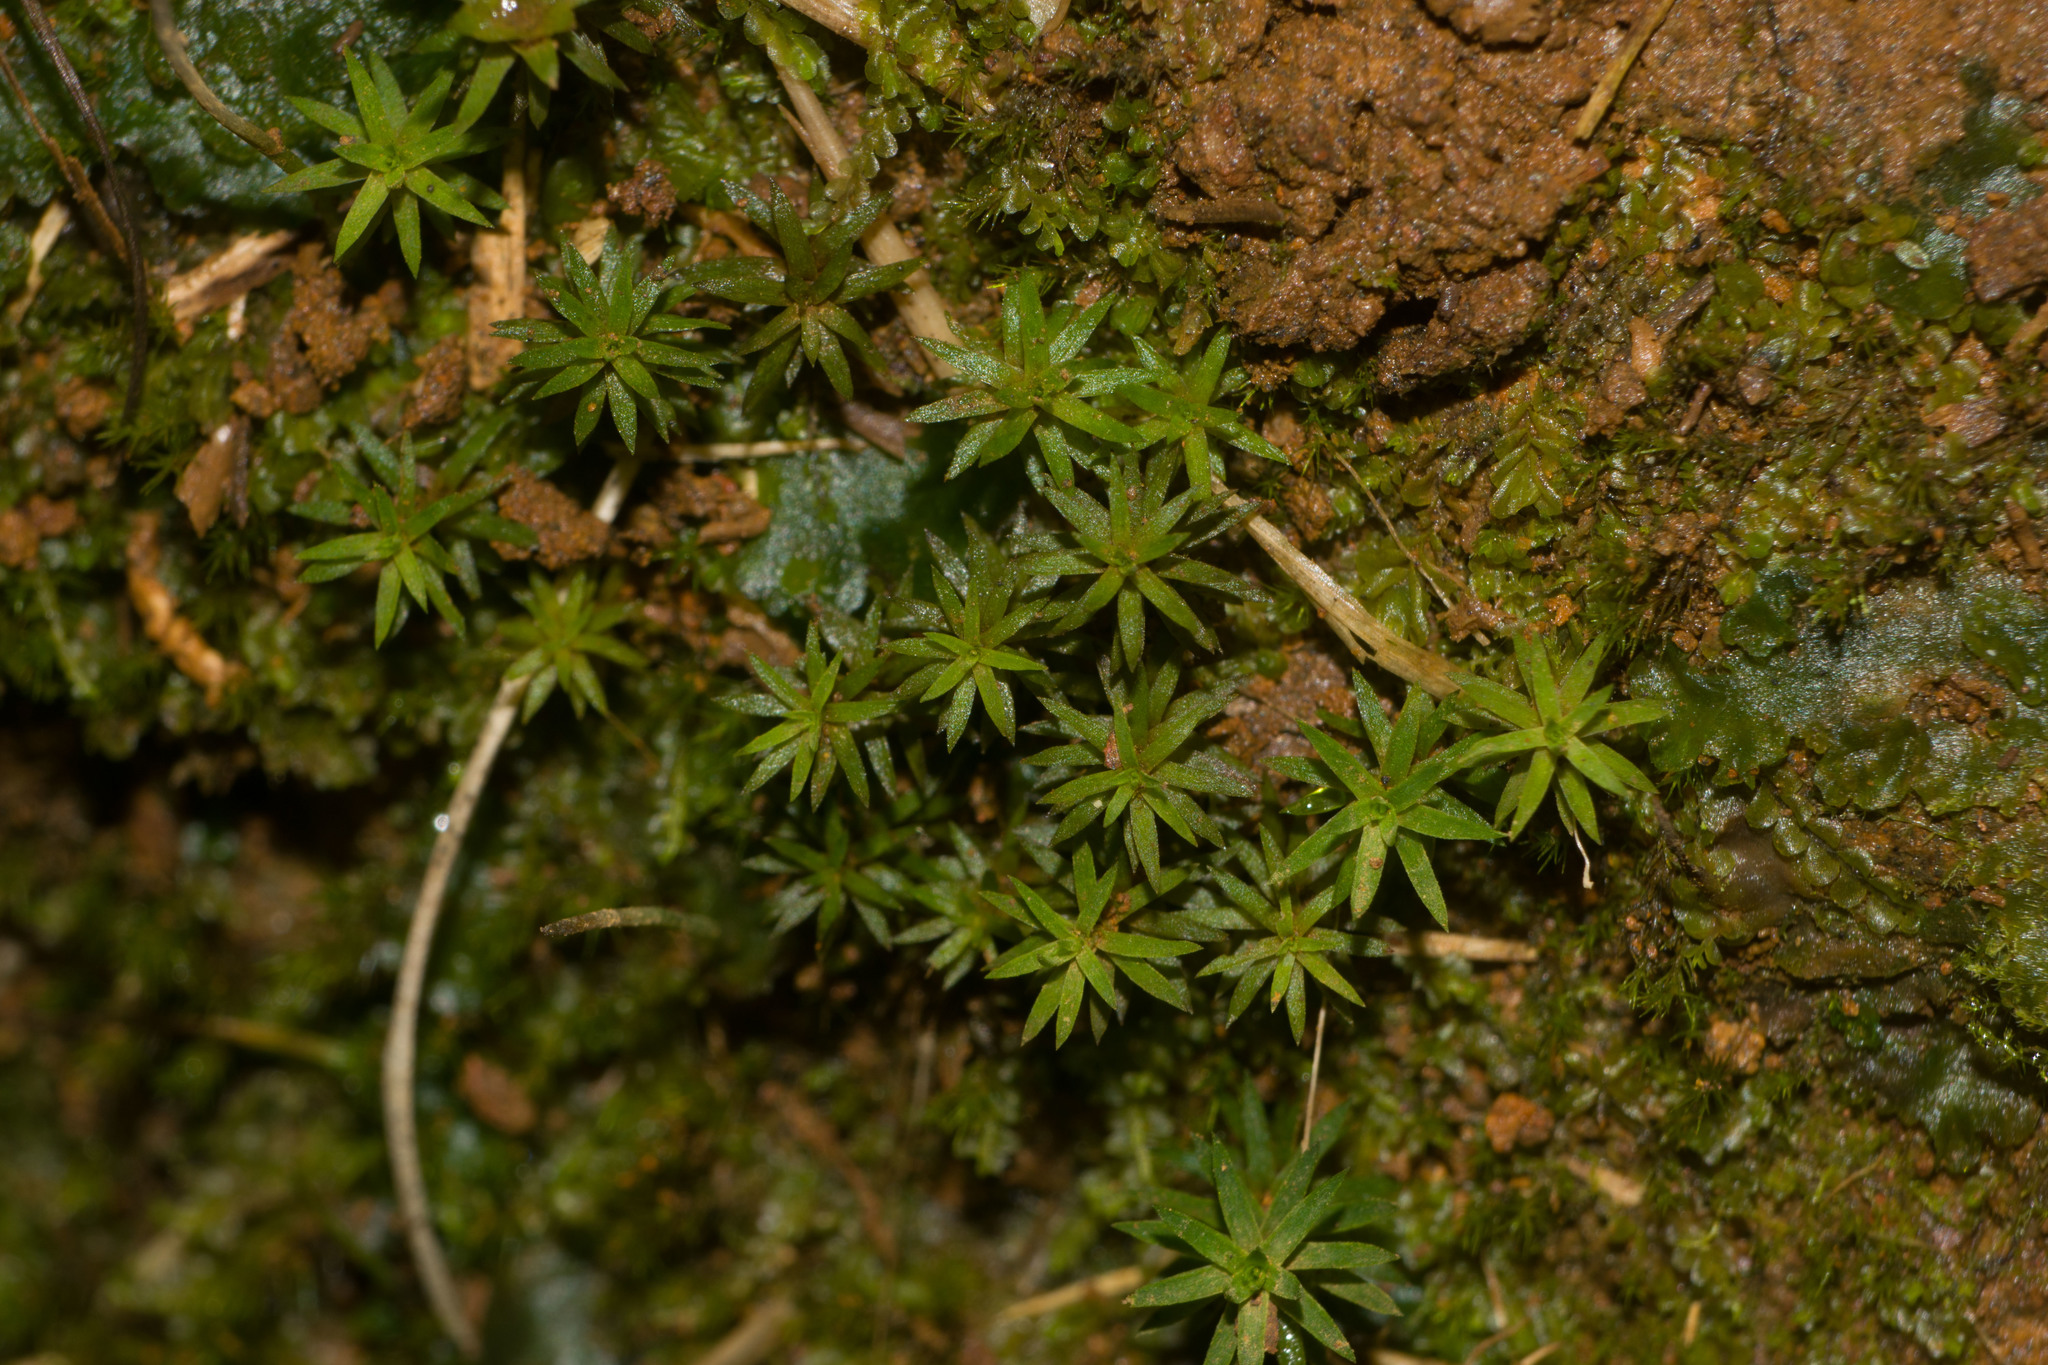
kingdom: Plantae
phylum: Bryophyta
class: Polytrichopsida
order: Polytrichales
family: Polytrichaceae
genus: Pogonatum
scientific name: Pogonatum tahitense
